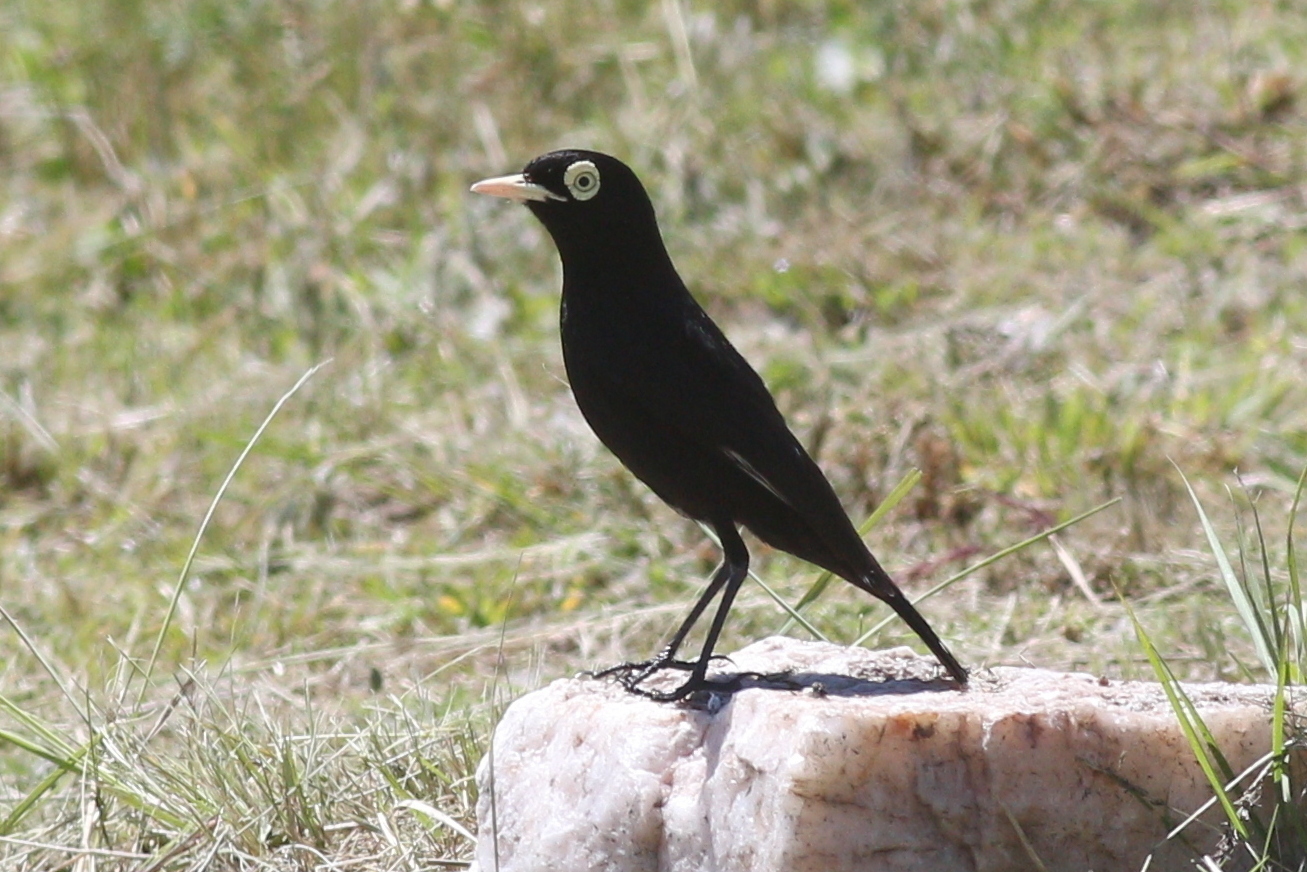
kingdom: Animalia
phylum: Chordata
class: Aves
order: Passeriformes
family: Tyrannidae
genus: Hymenops
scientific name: Hymenops perspicillatus
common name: Spectacled tyrant
